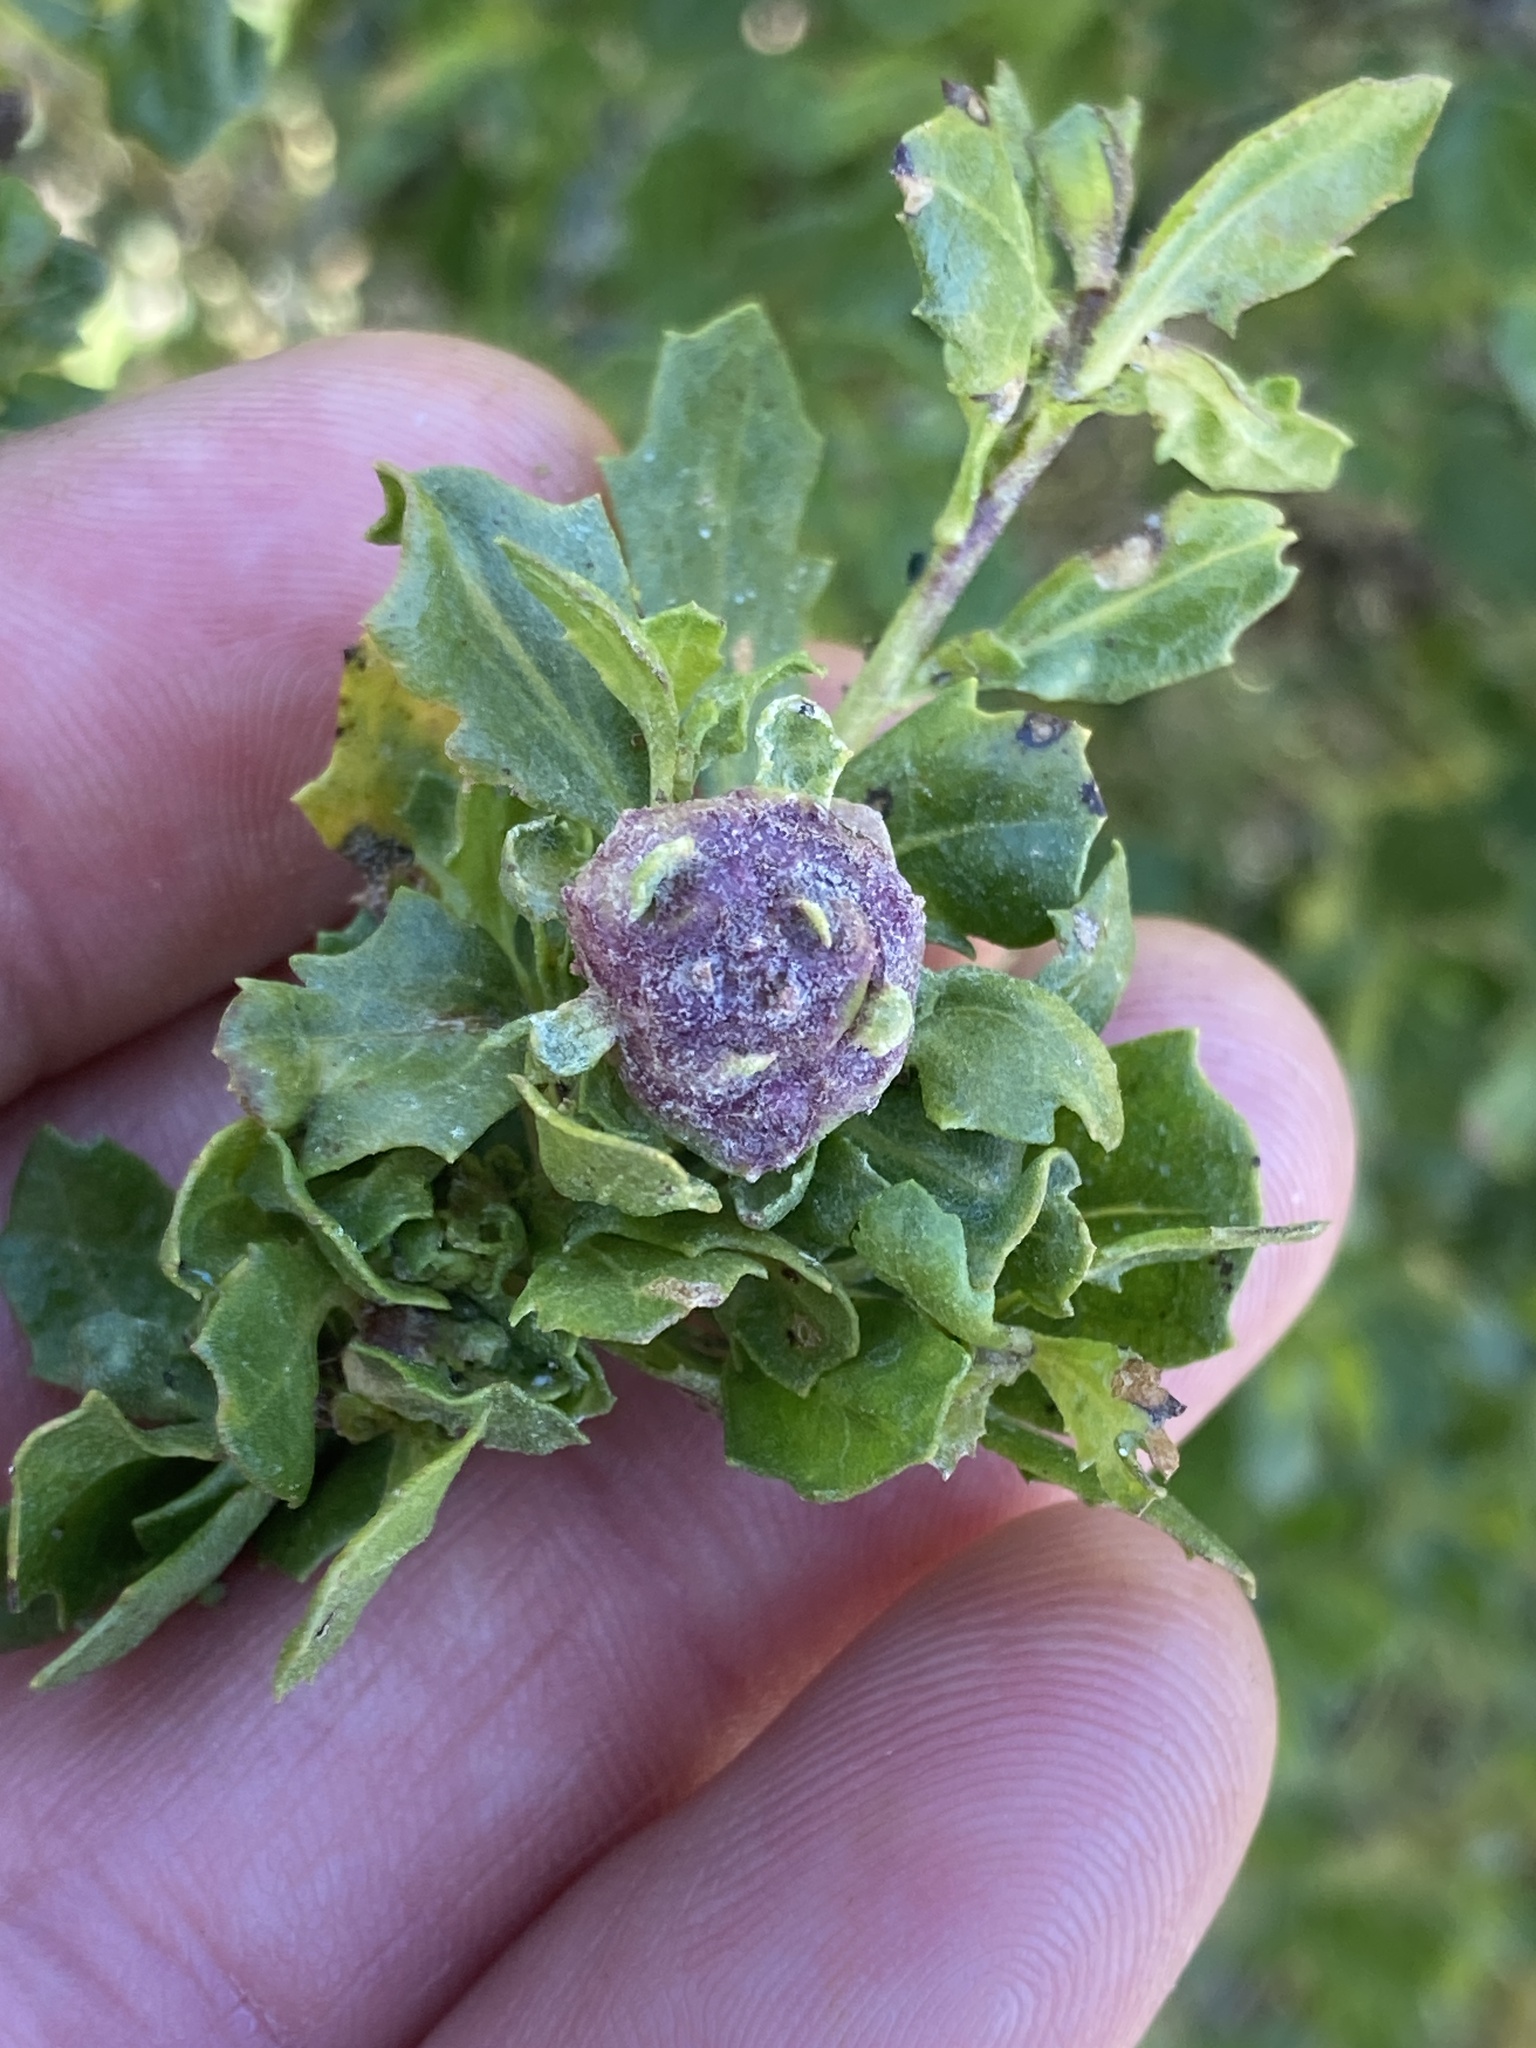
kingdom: Animalia
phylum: Arthropoda
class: Insecta
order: Diptera
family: Cecidomyiidae
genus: Rhopalomyia
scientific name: Rhopalomyia californica
